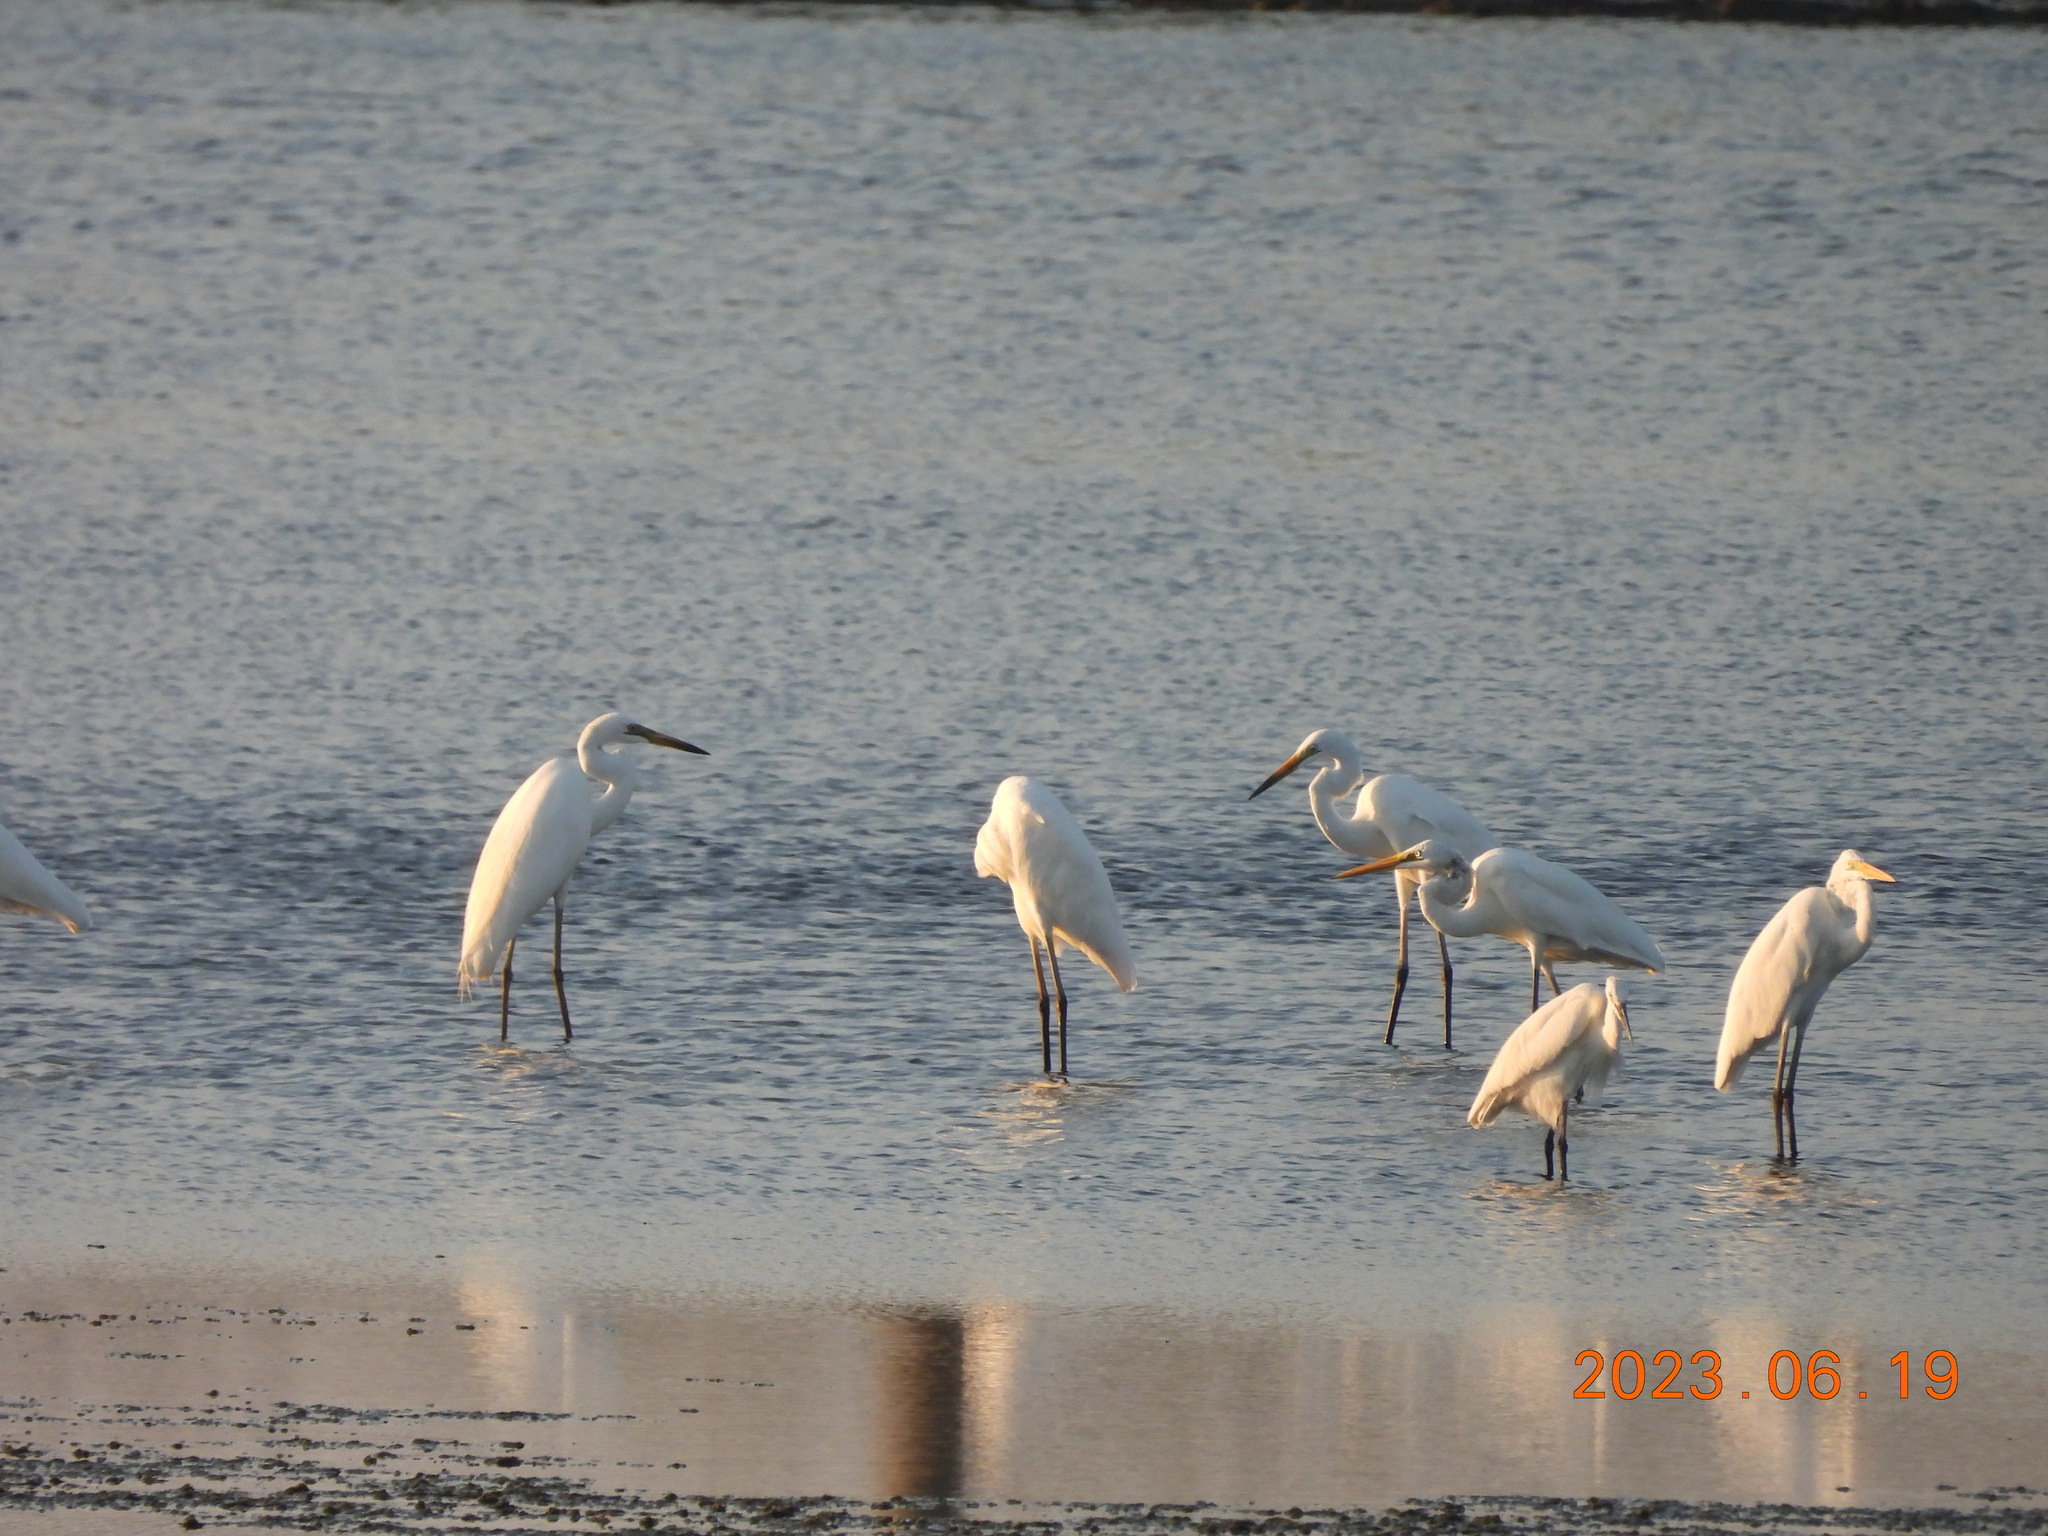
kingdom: Animalia
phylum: Chordata
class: Aves
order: Pelecaniformes
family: Ardeidae
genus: Ardea
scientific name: Ardea alba
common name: Great egret
